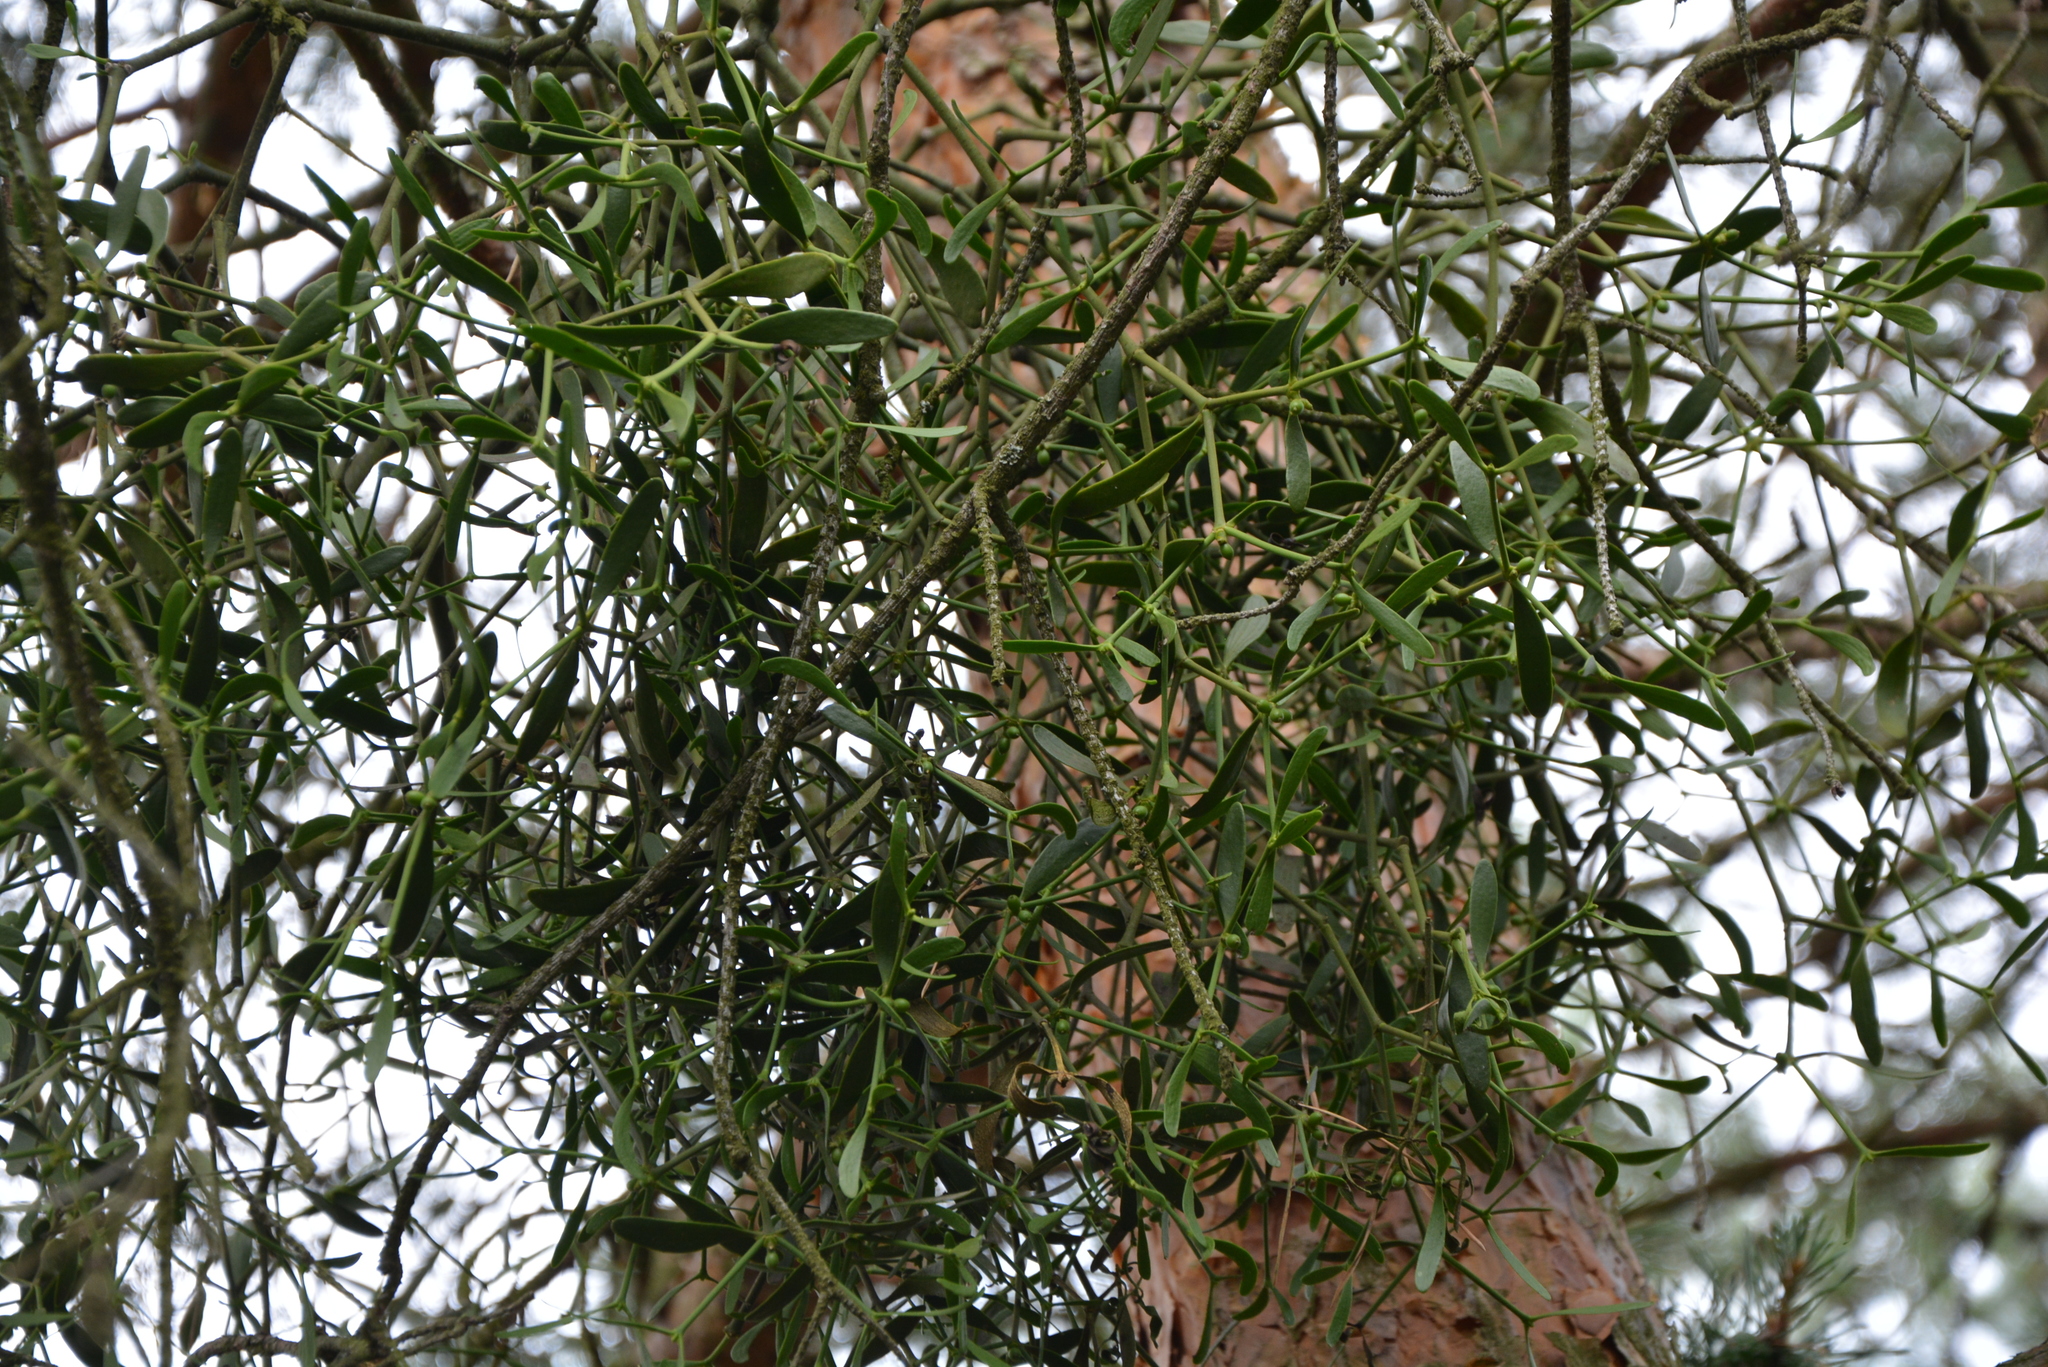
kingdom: Plantae
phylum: Tracheophyta
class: Magnoliopsida
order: Santalales
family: Viscaceae
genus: Viscum
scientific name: Viscum laxum
